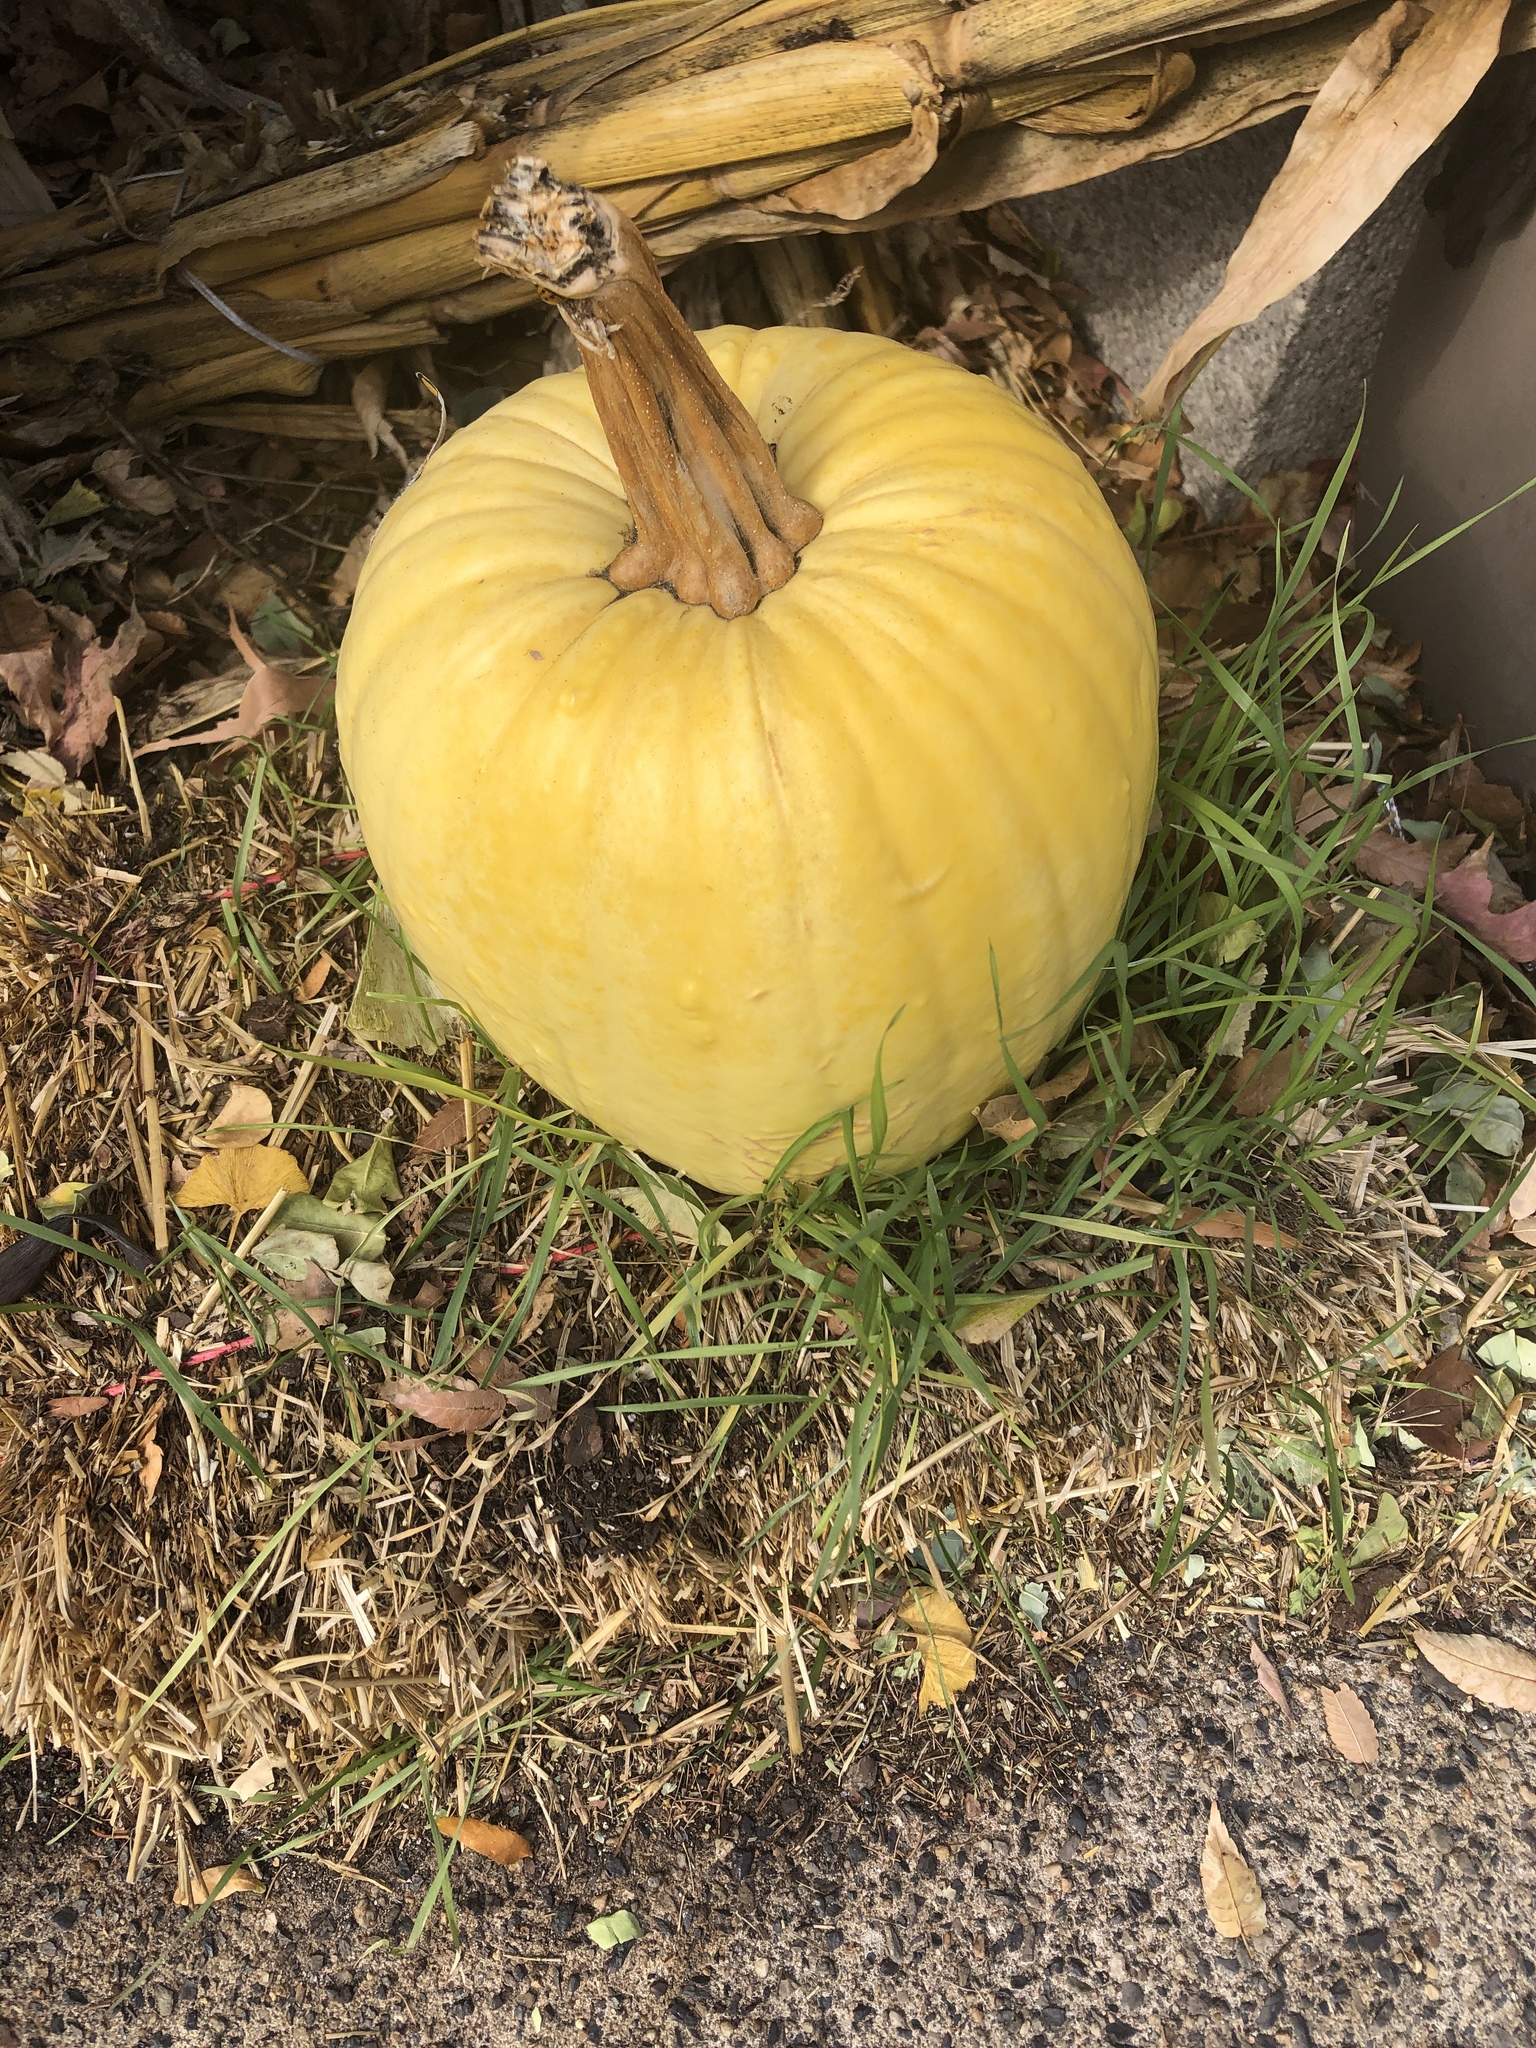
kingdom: Plantae
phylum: Tracheophyta
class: Magnoliopsida
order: Cucurbitales
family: Cucurbitaceae
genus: Cucurbita
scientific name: Cucurbita pepo
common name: Marrow
